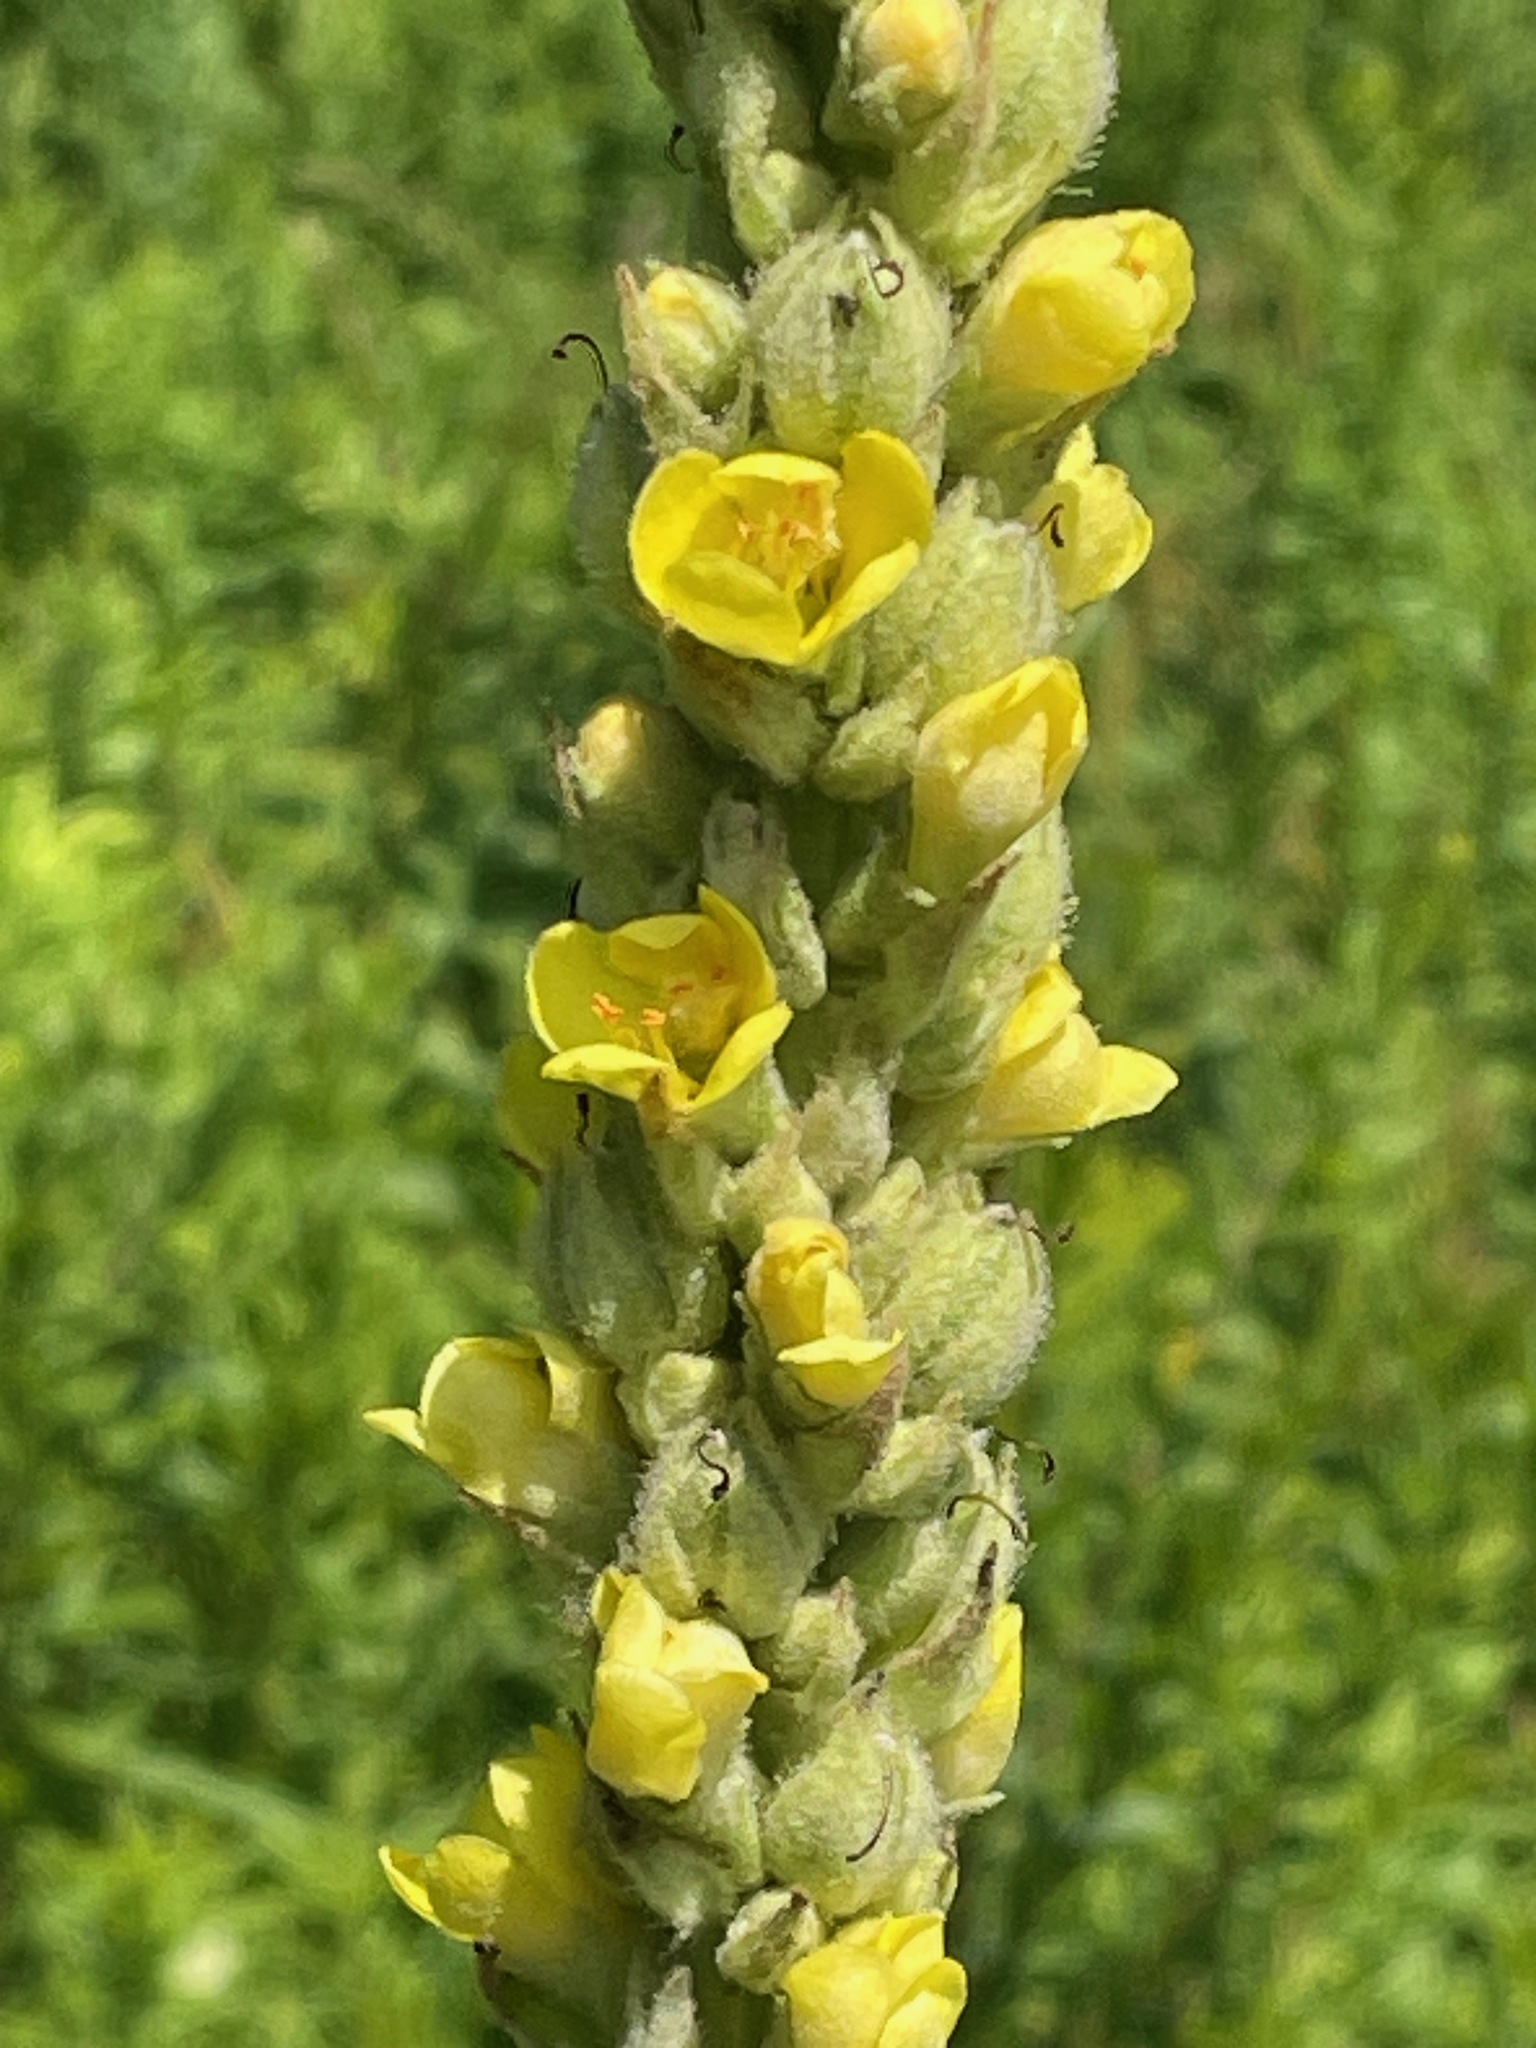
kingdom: Plantae
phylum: Tracheophyta
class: Magnoliopsida
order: Lamiales
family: Scrophulariaceae
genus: Verbascum
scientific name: Verbascum thapsus
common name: Common mullein
